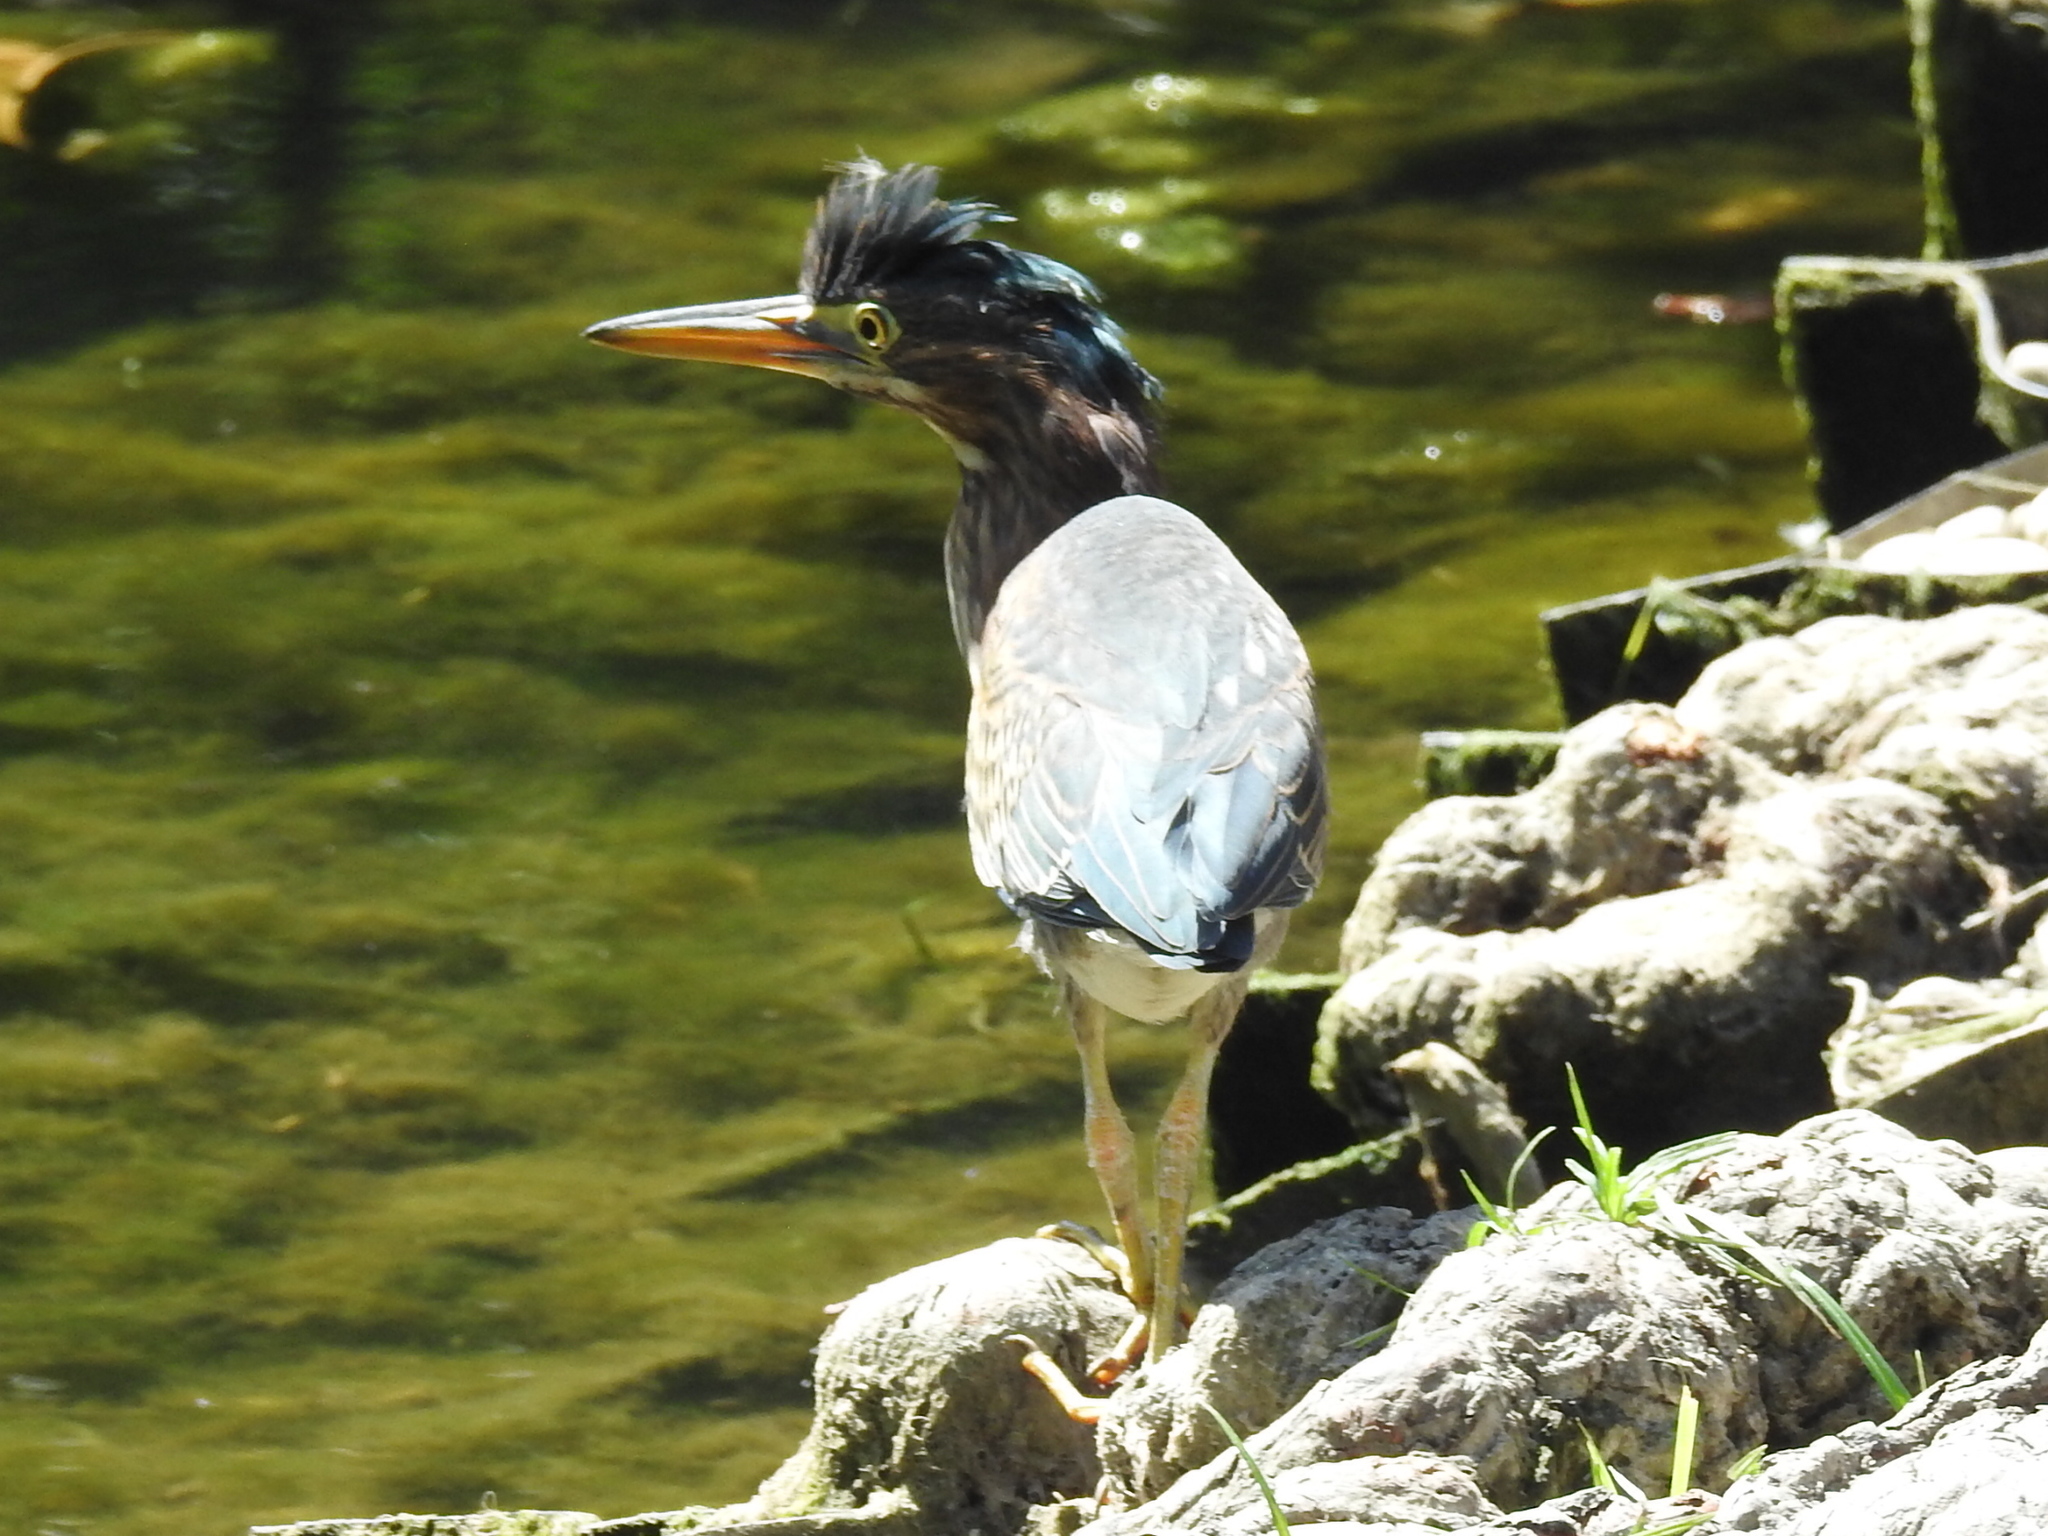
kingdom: Animalia
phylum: Chordata
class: Aves
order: Pelecaniformes
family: Ardeidae
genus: Butorides
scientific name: Butorides virescens
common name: Green heron
